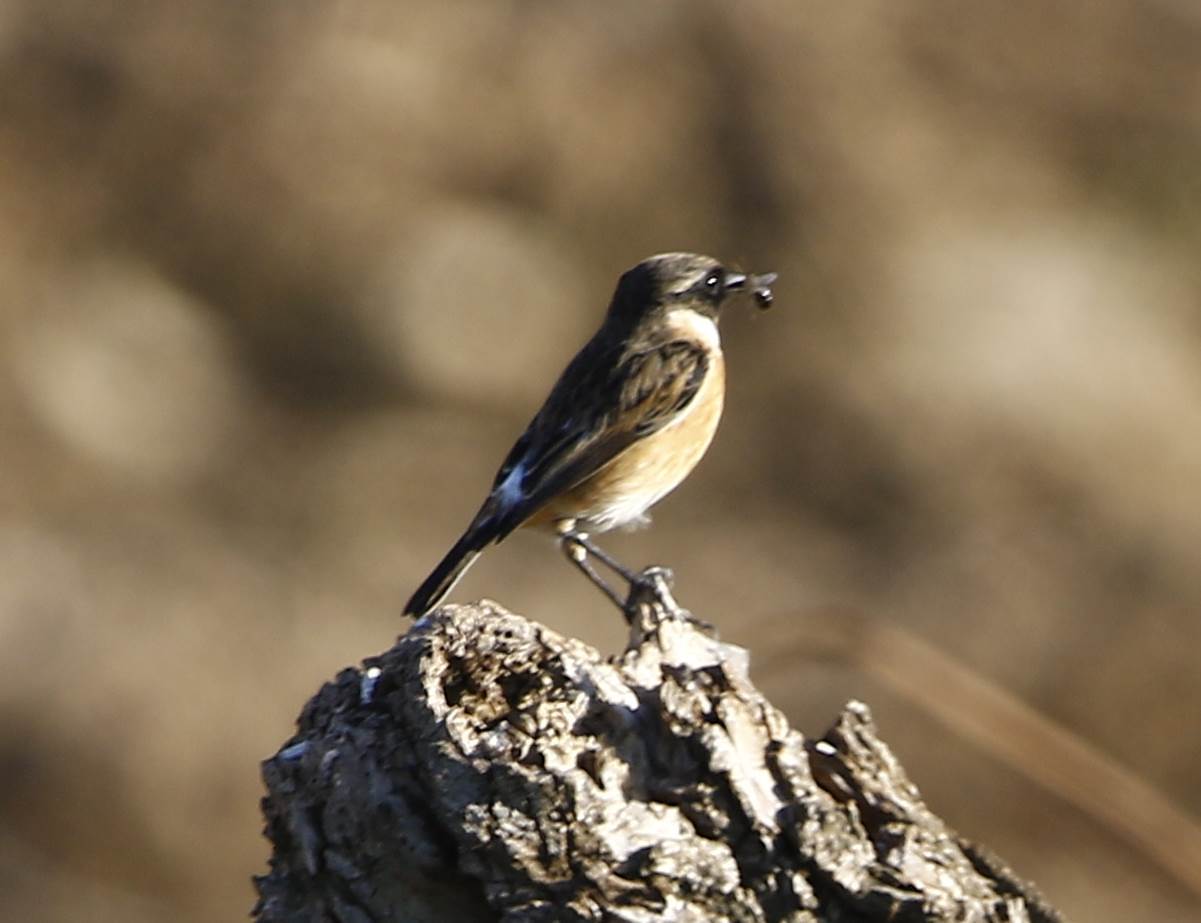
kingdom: Animalia
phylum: Chordata
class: Aves
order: Passeriformes
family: Muscicapidae
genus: Saxicola
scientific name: Saxicola rubicola
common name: European stonechat
